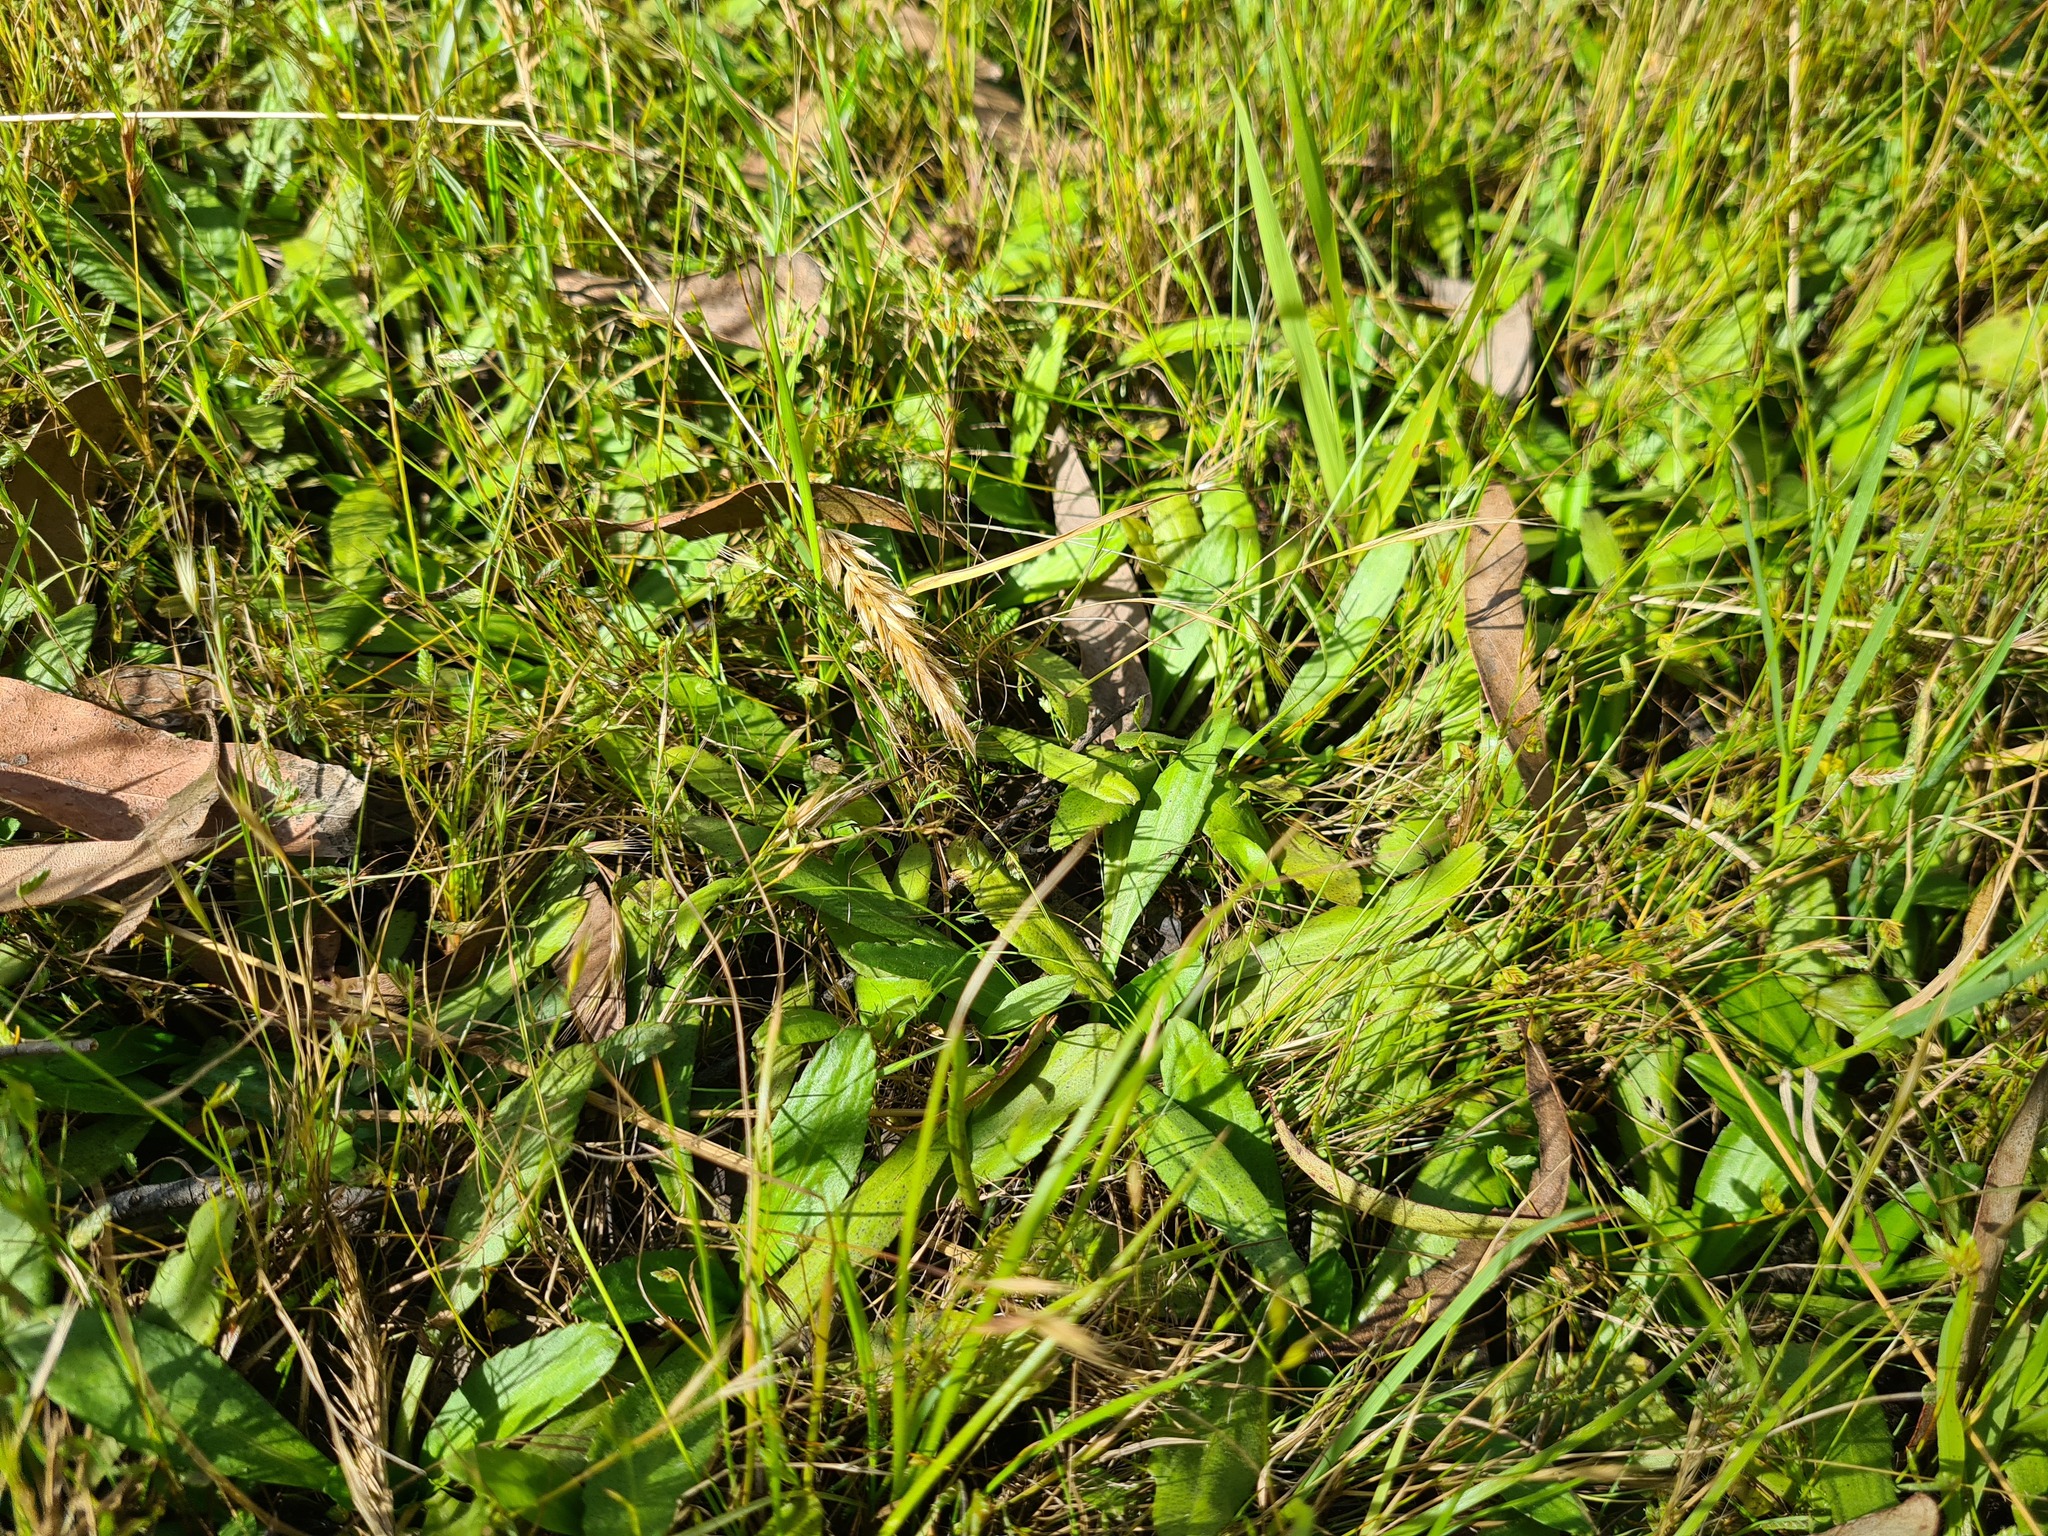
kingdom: Plantae
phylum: Tracheophyta
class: Magnoliopsida
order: Asterales
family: Asteraceae
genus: Solenogyne
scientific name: Solenogyne dominii
